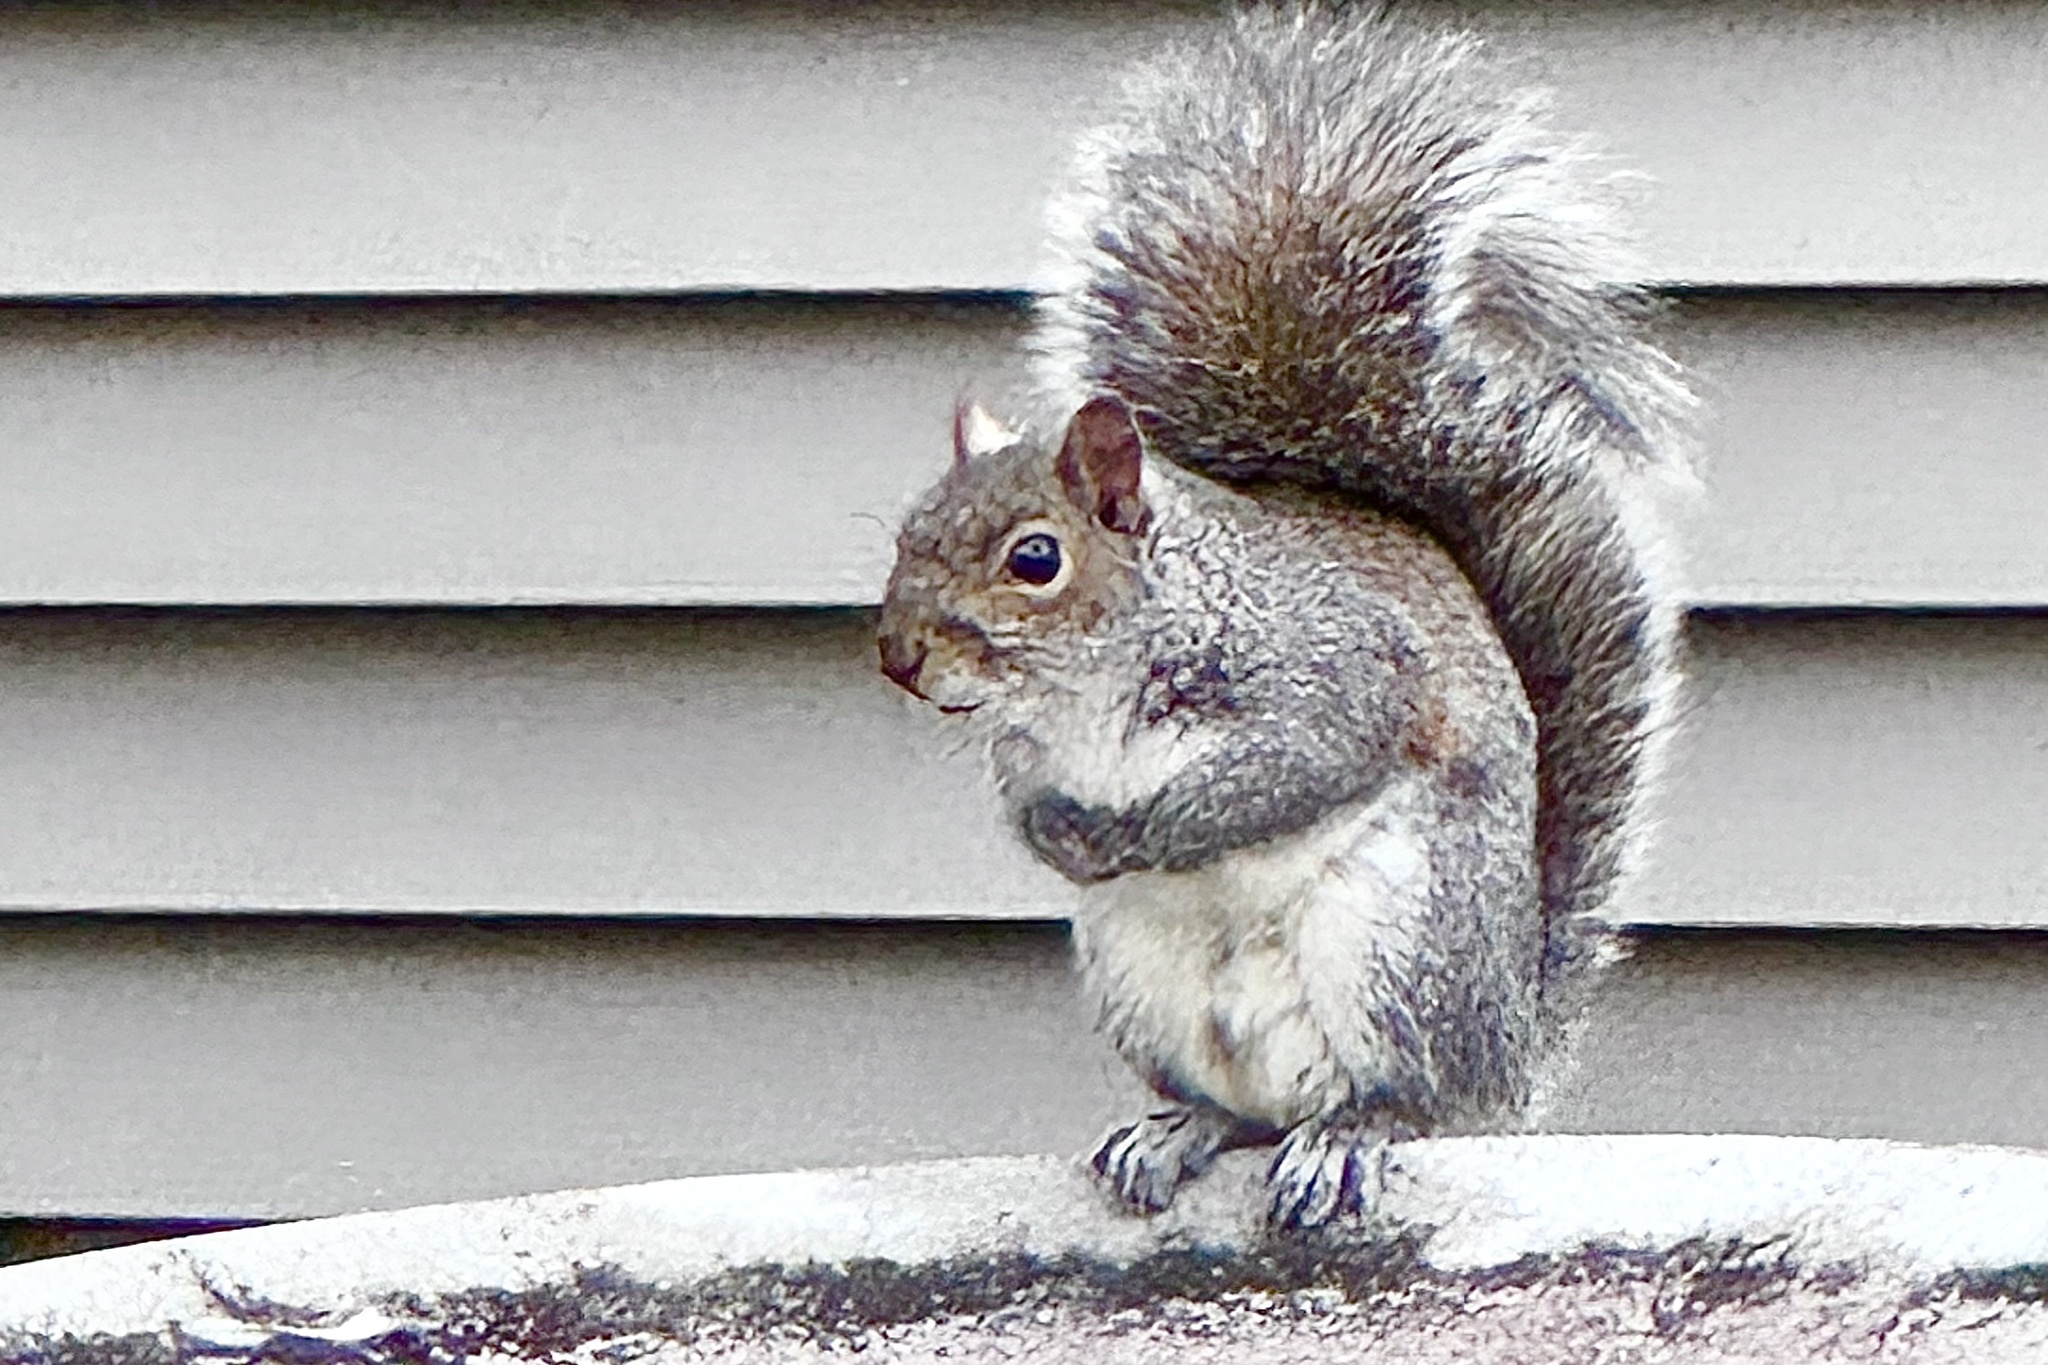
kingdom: Animalia
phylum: Chordata
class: Mammalia
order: Rodentia
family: Sciuridae
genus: Sciurus
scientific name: Sciurus carolinensis
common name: Eastern gray squirrel
